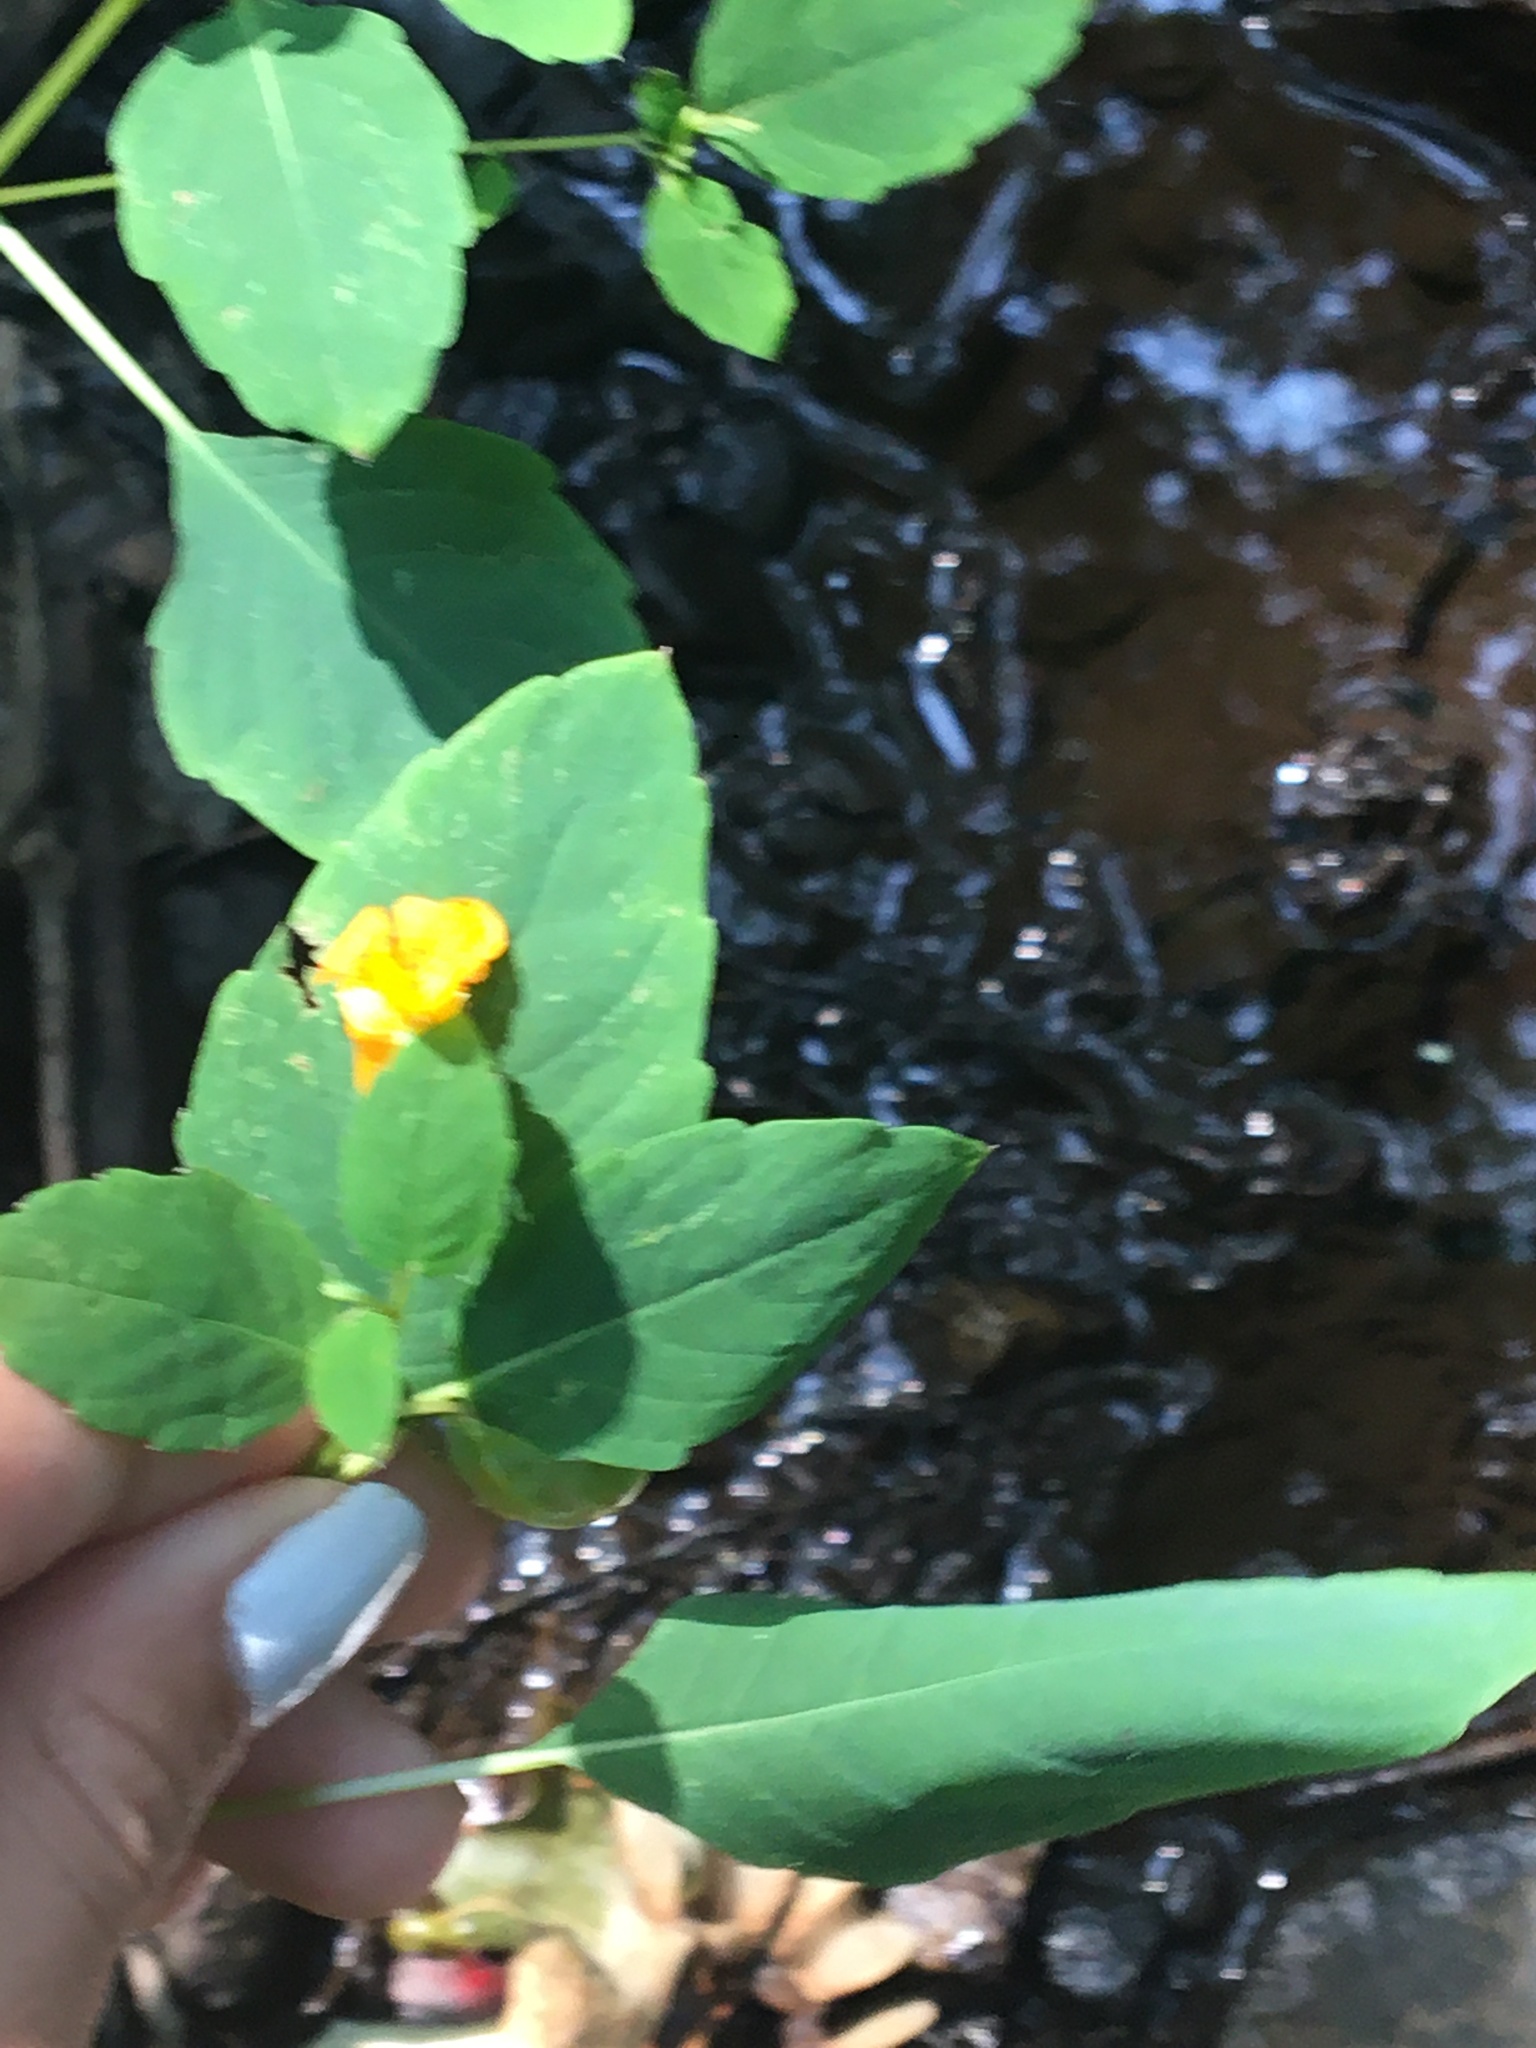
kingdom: Plantae
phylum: Tracheophyta
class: Magnoliopsida
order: Ericales
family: Balsaminaceae
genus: Impatiens
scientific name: Impatiens capensis
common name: Orange balsam
